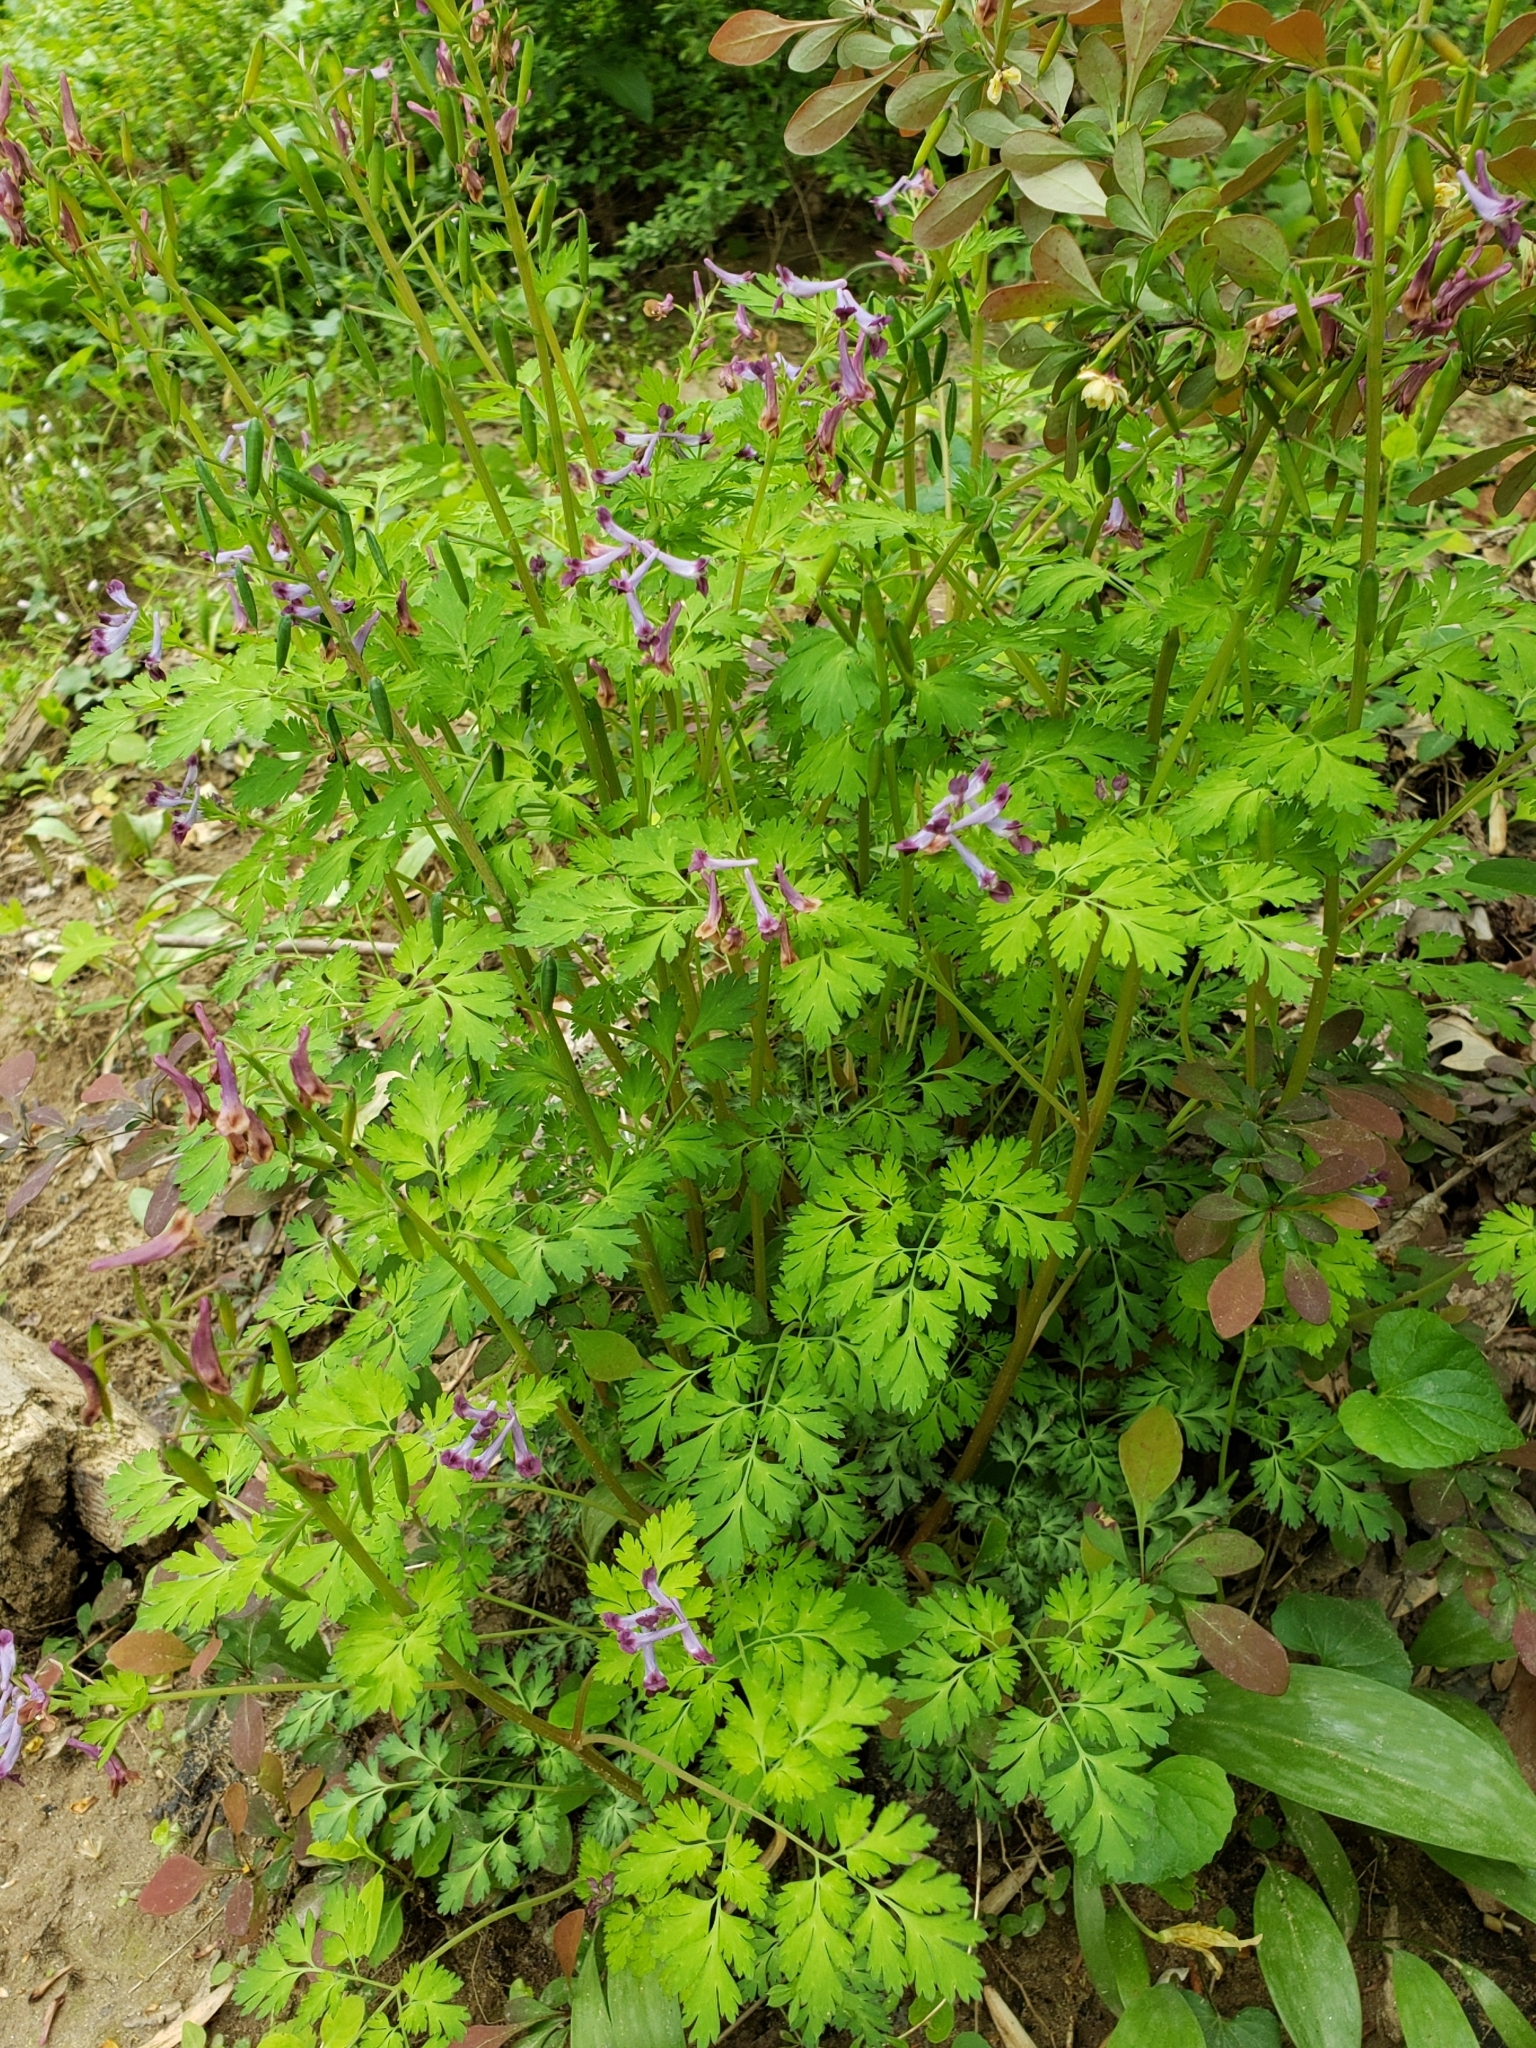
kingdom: Plantae
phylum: Tracheophyta
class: Magnoliopsida
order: Ranunculales
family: Papaveraceae
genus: Corydalis
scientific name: Corydalis incisa
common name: Incised fumewort
